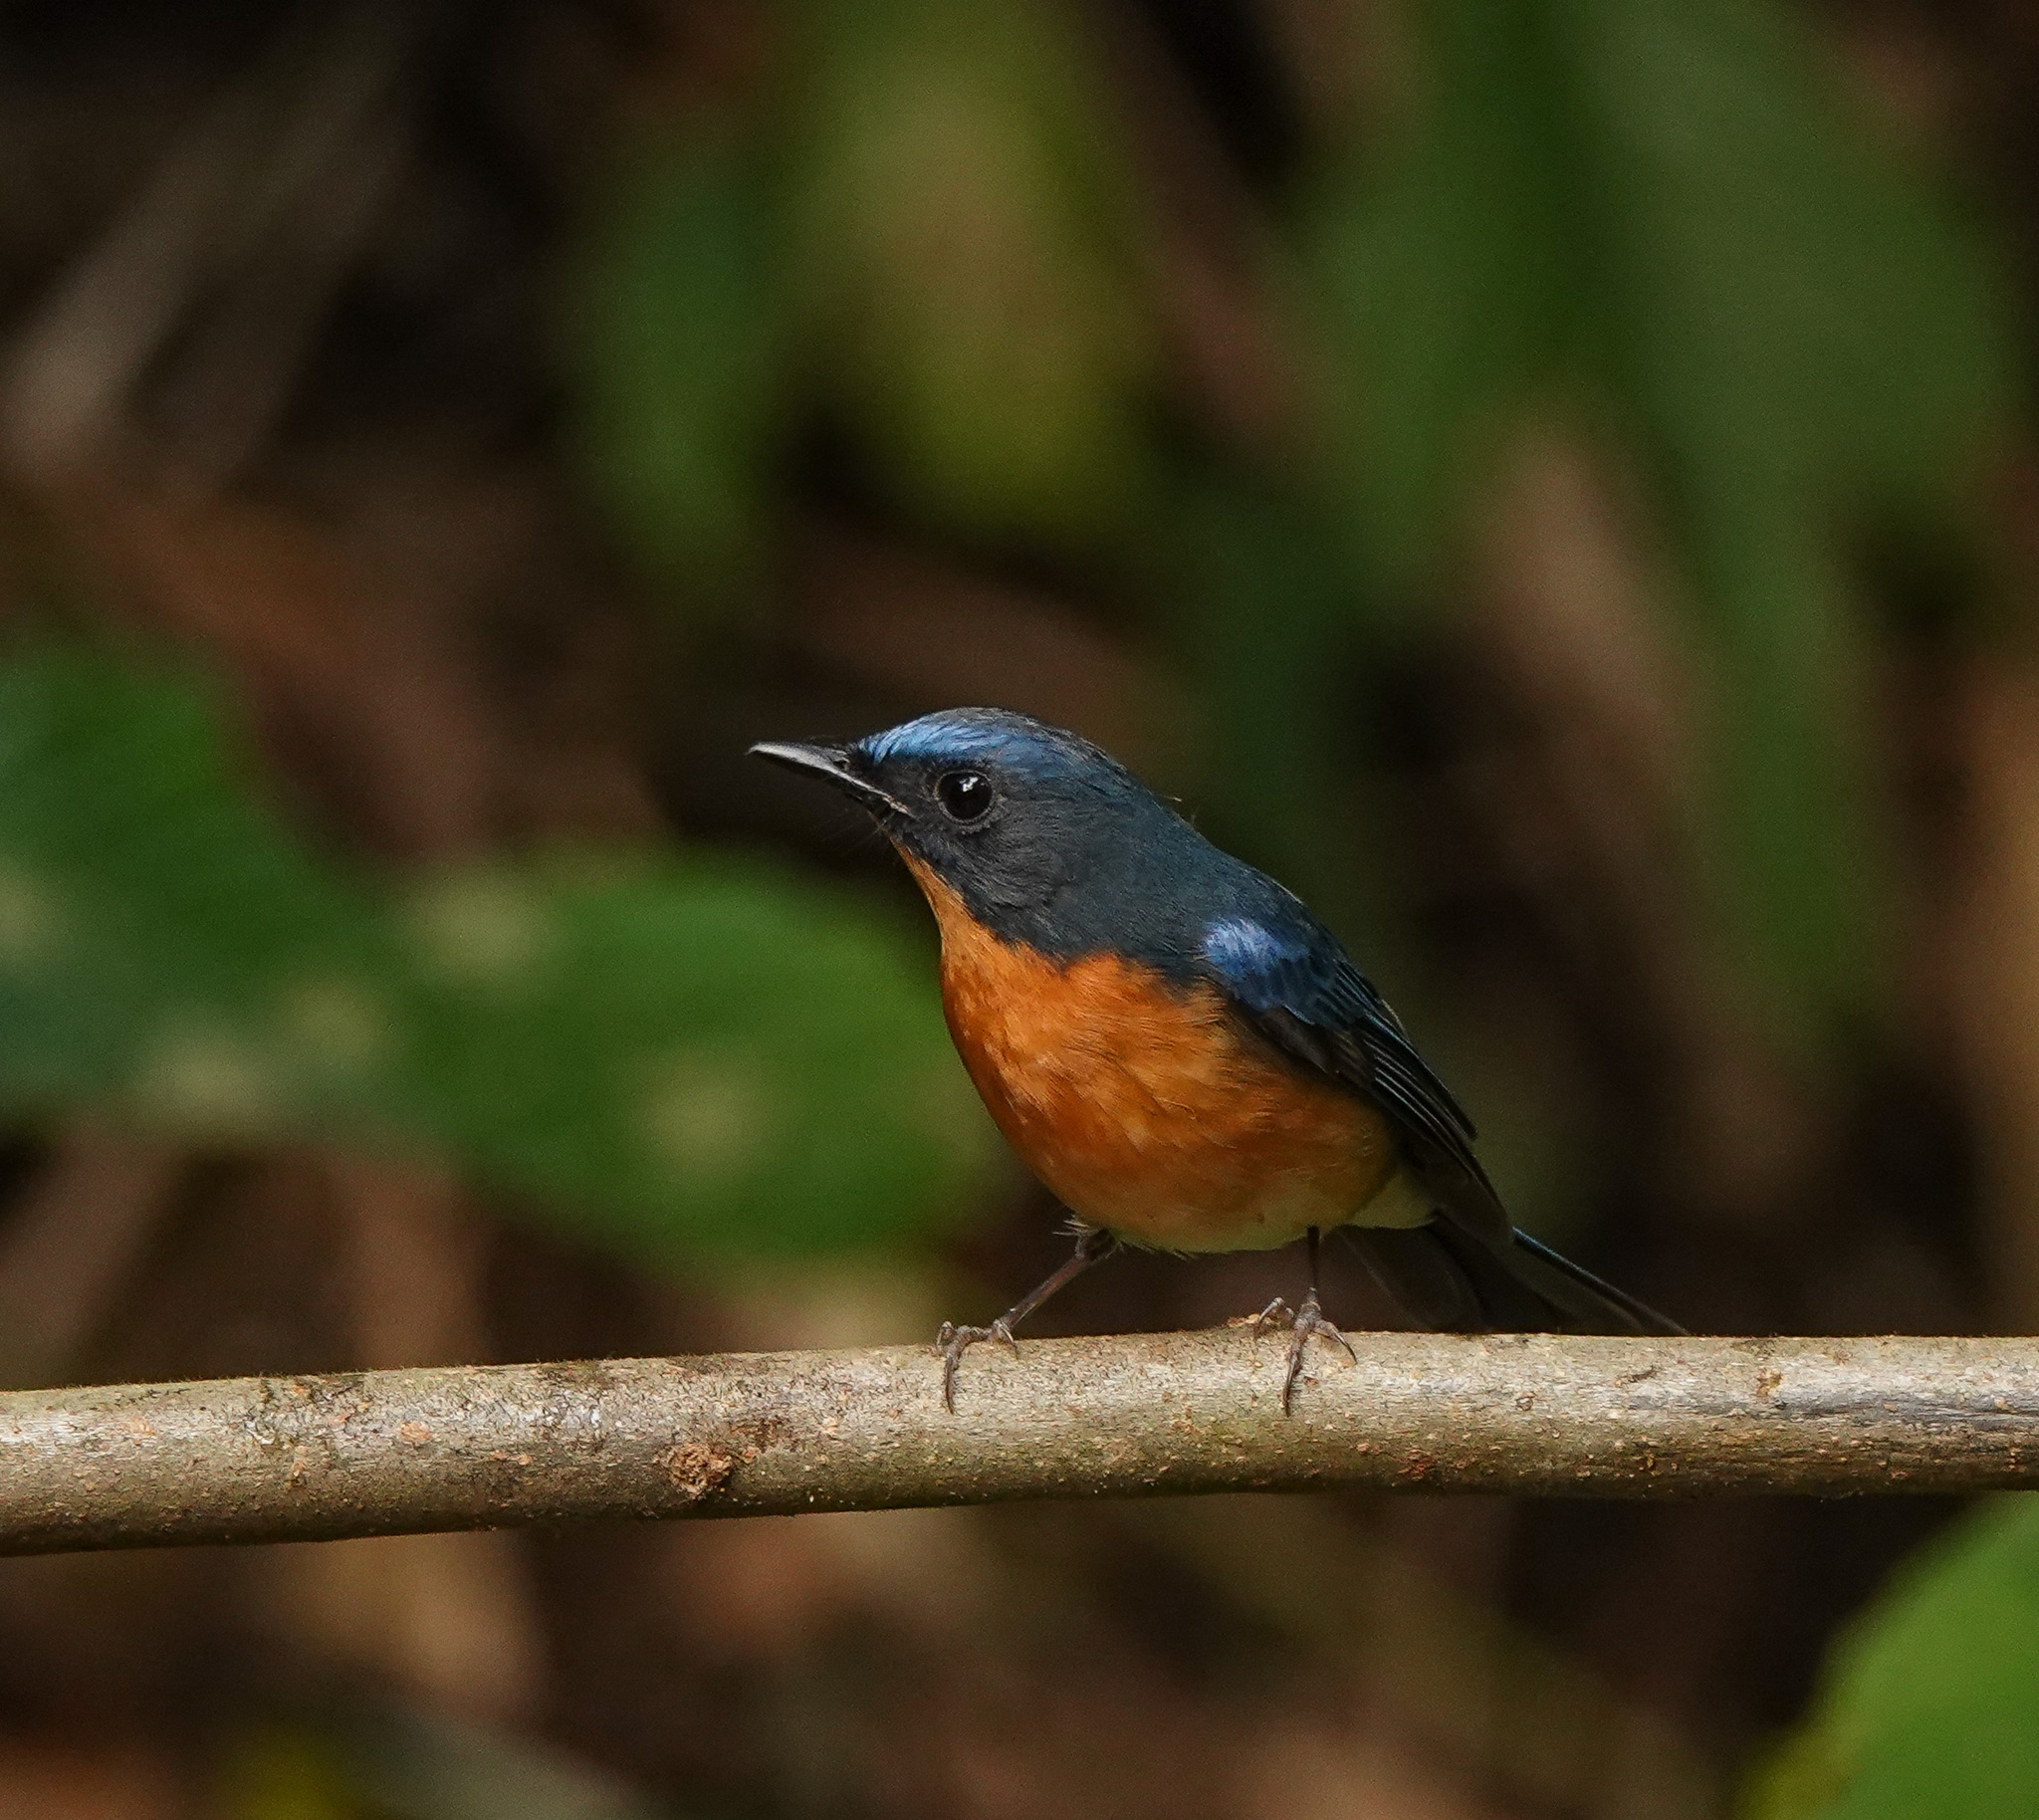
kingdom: Animalia
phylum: Chordata
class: Aves
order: Passeriformes
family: Muscicapidae
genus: Cyornis
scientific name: Cyornis whitei
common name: Hill blue flycatcher
